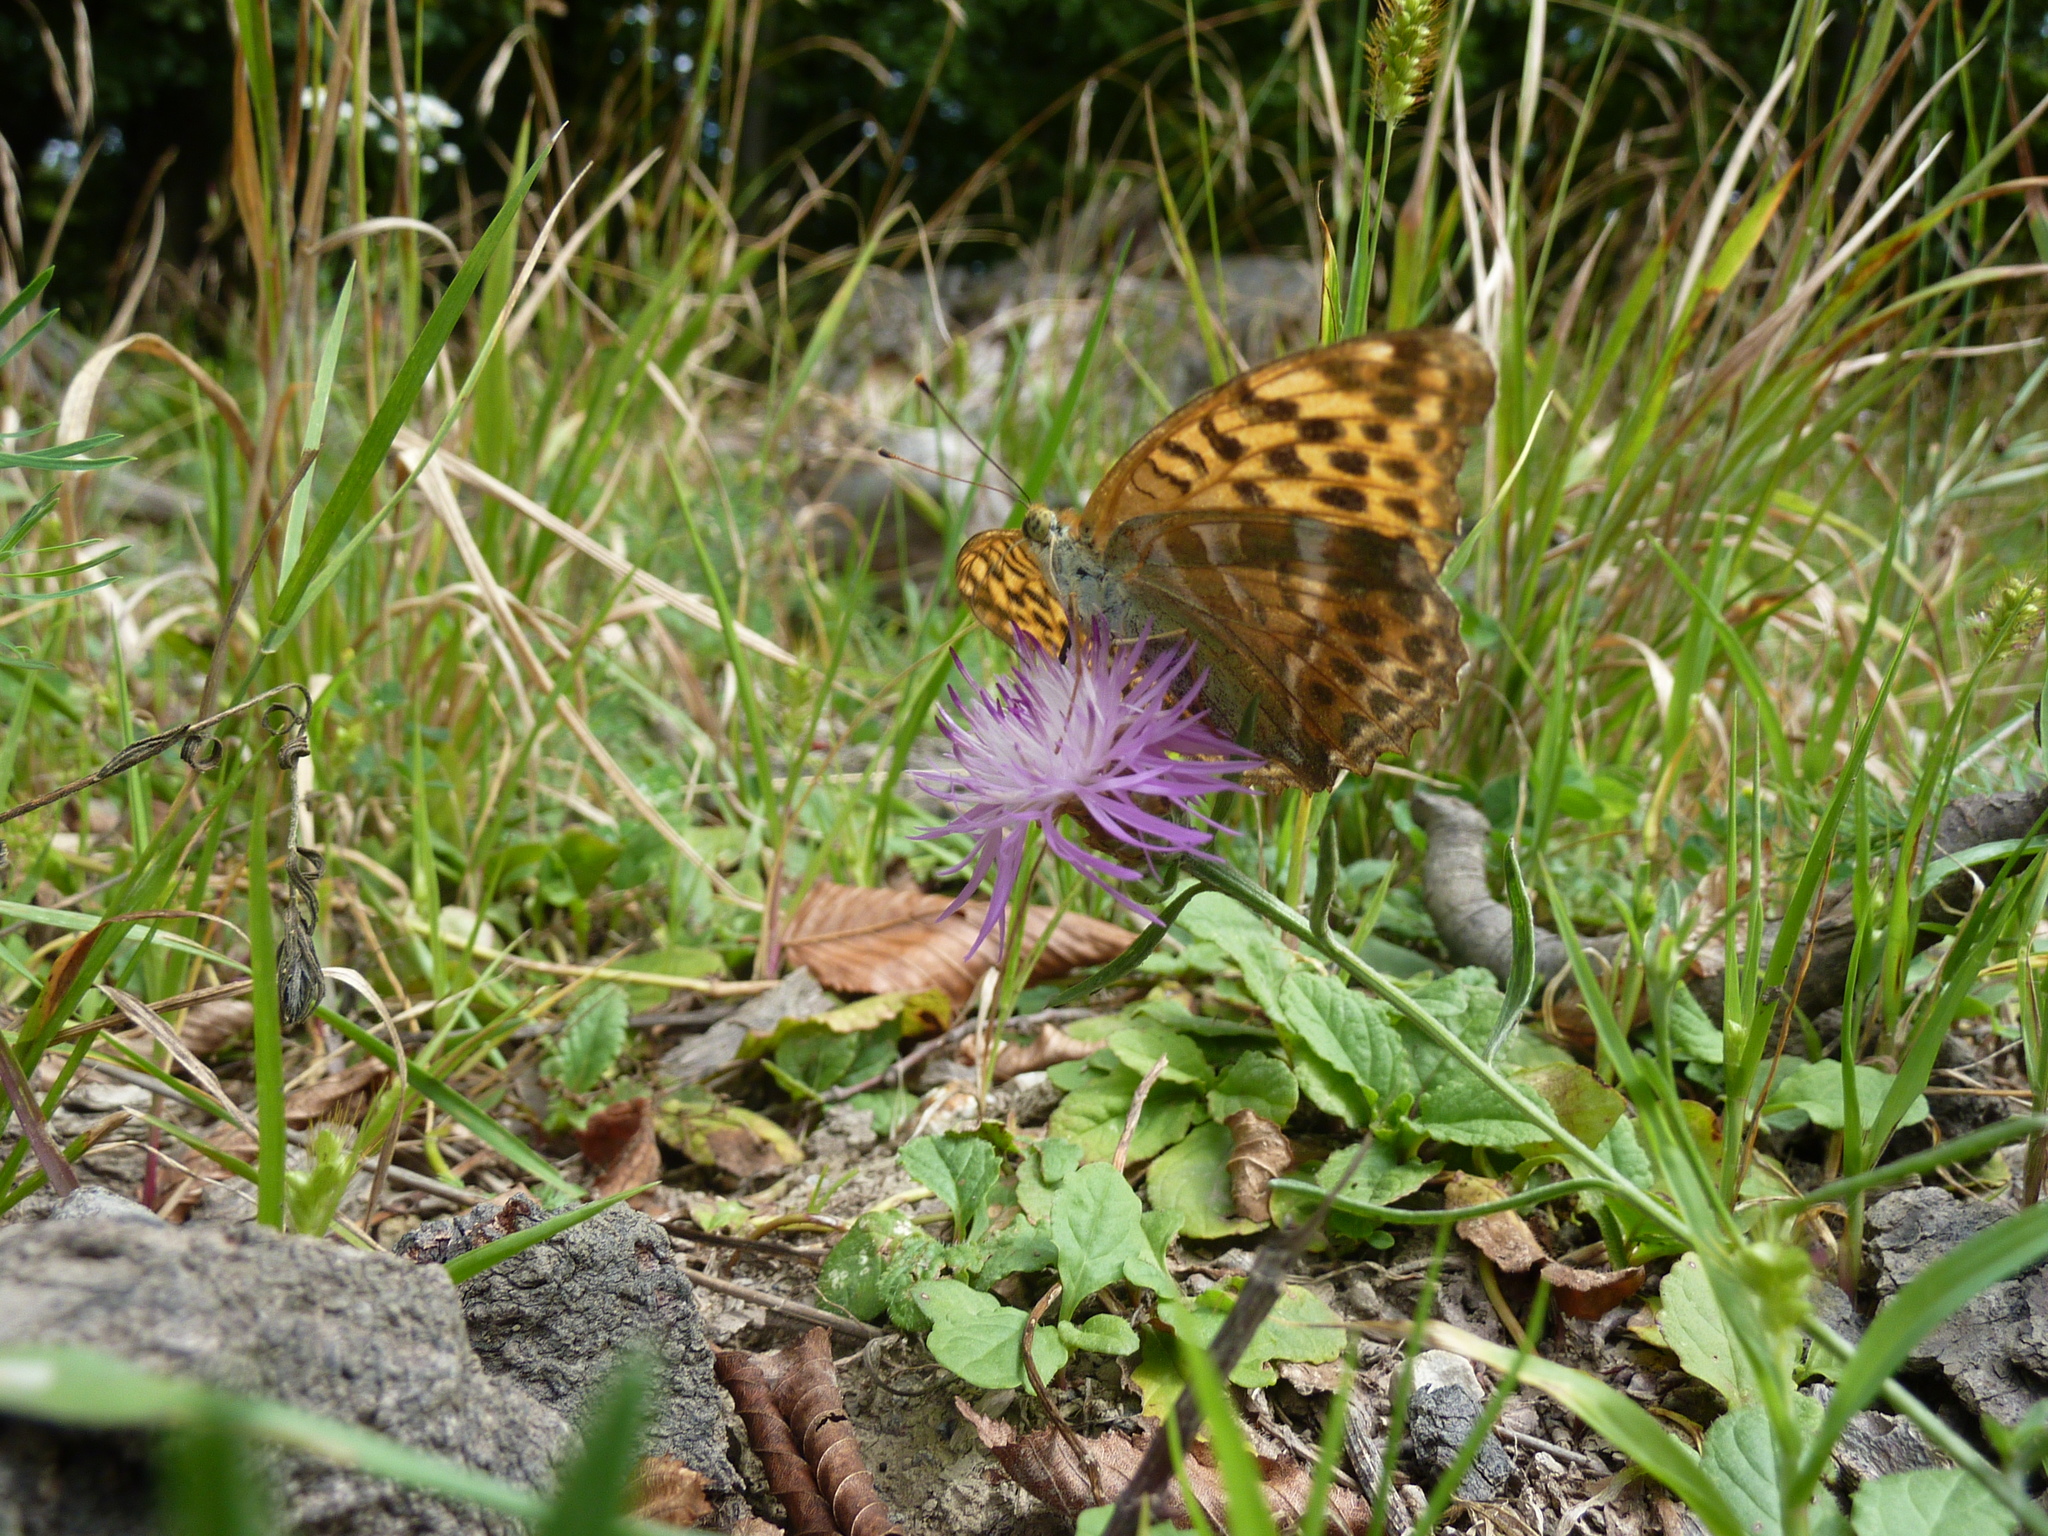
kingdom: Animalia
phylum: Arthropoda
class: Insecta
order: Lepidoptera
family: Nymphalidae
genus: Argynnis
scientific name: Argynnis paphia
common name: Silver-washed fritillary
